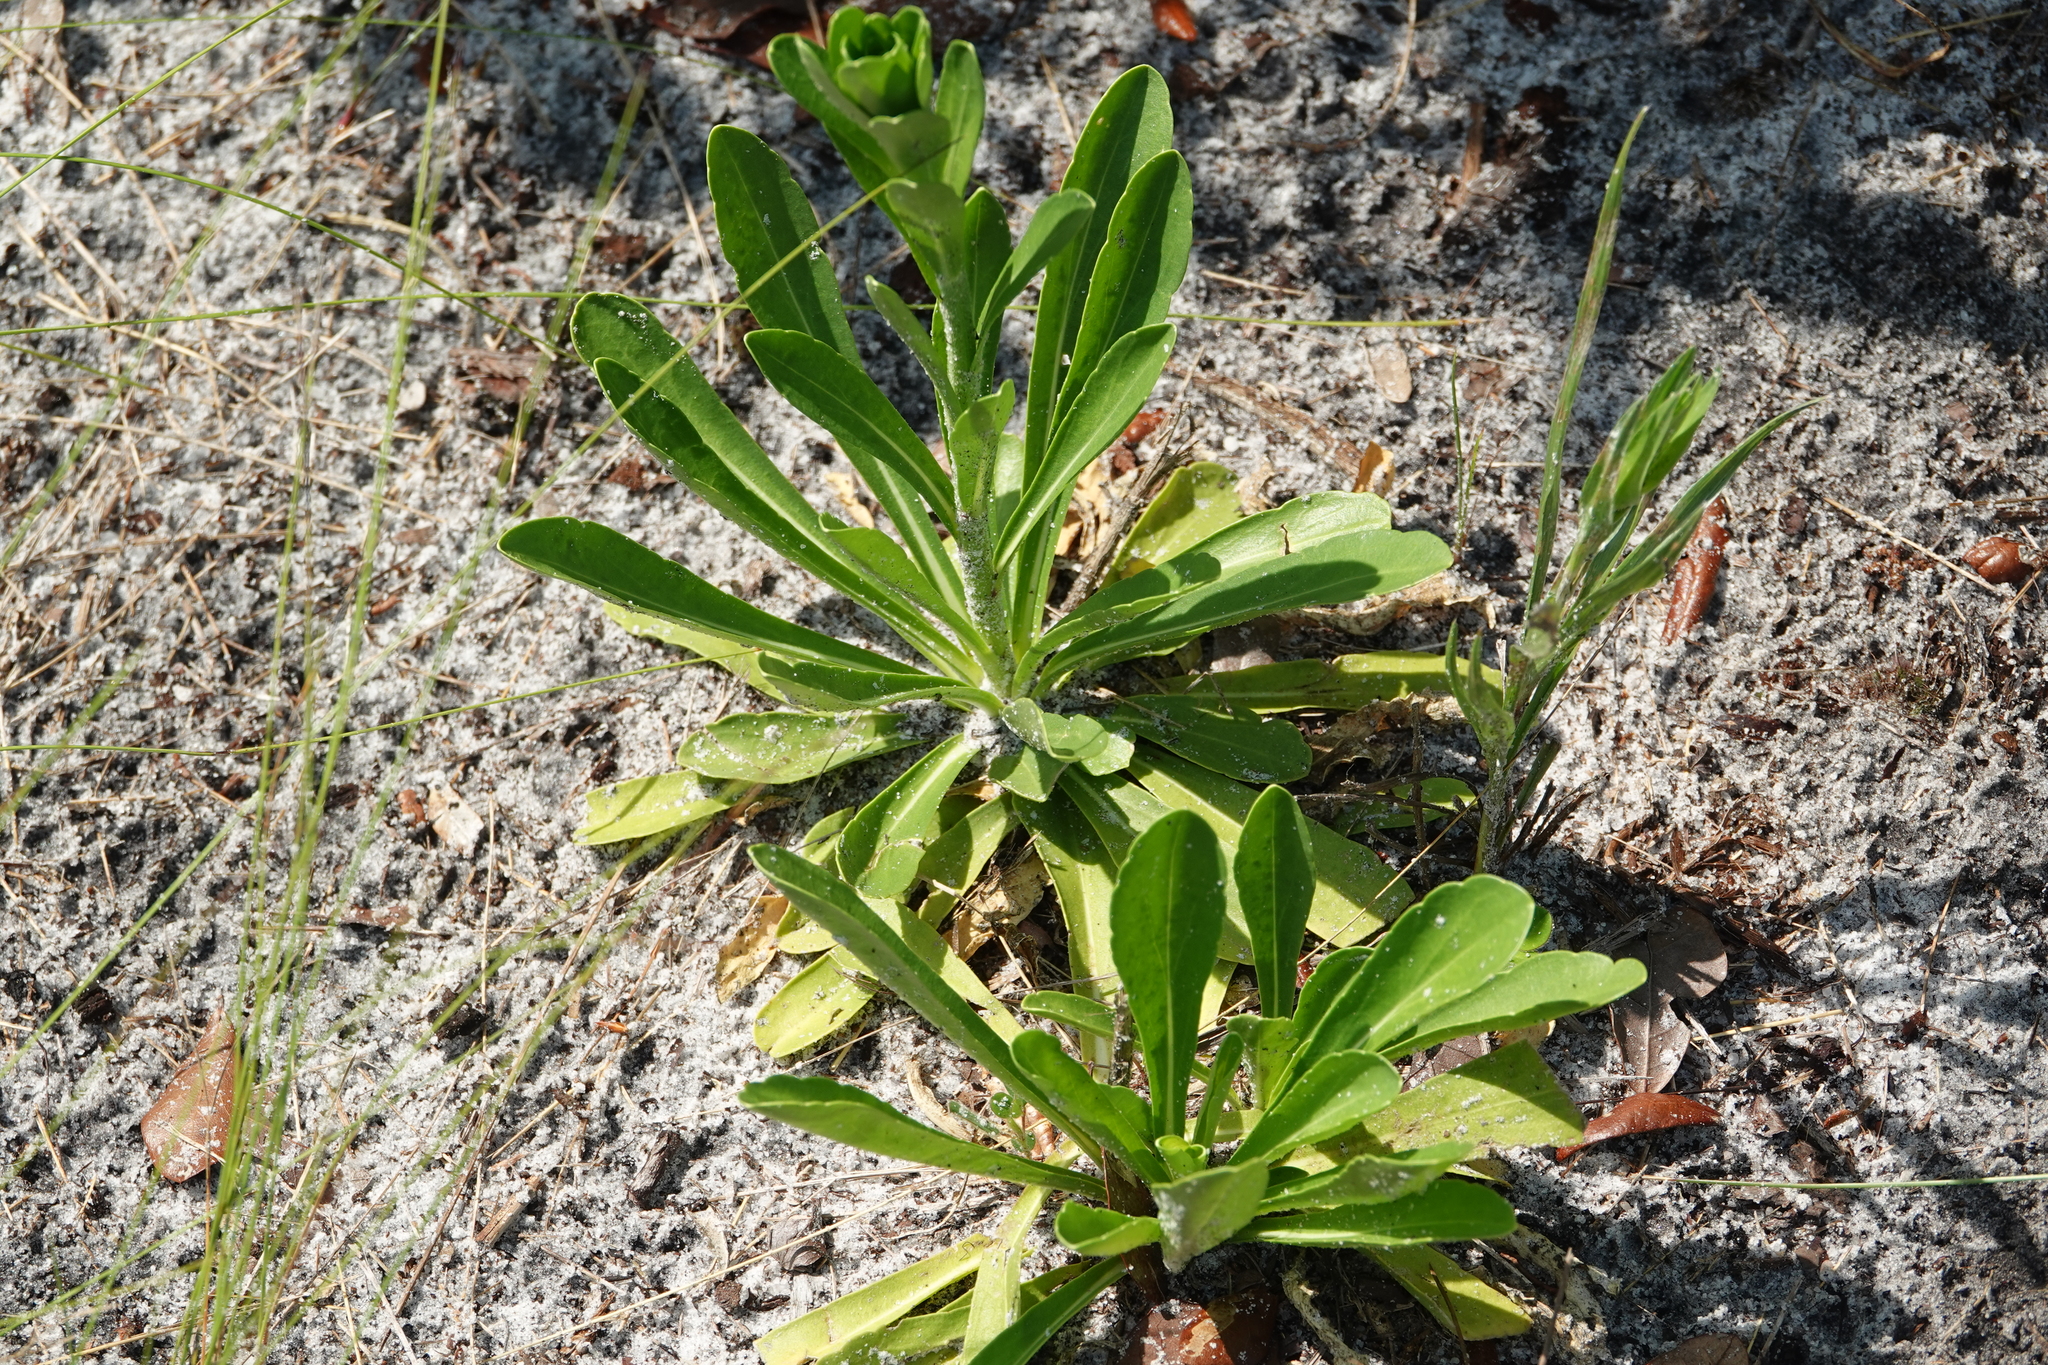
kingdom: Plantae
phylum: Tracheophyta
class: Magnoliopsida
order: Asterales
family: Asteraceae
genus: Carphephorus
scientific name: Carphephorus corymbosus
